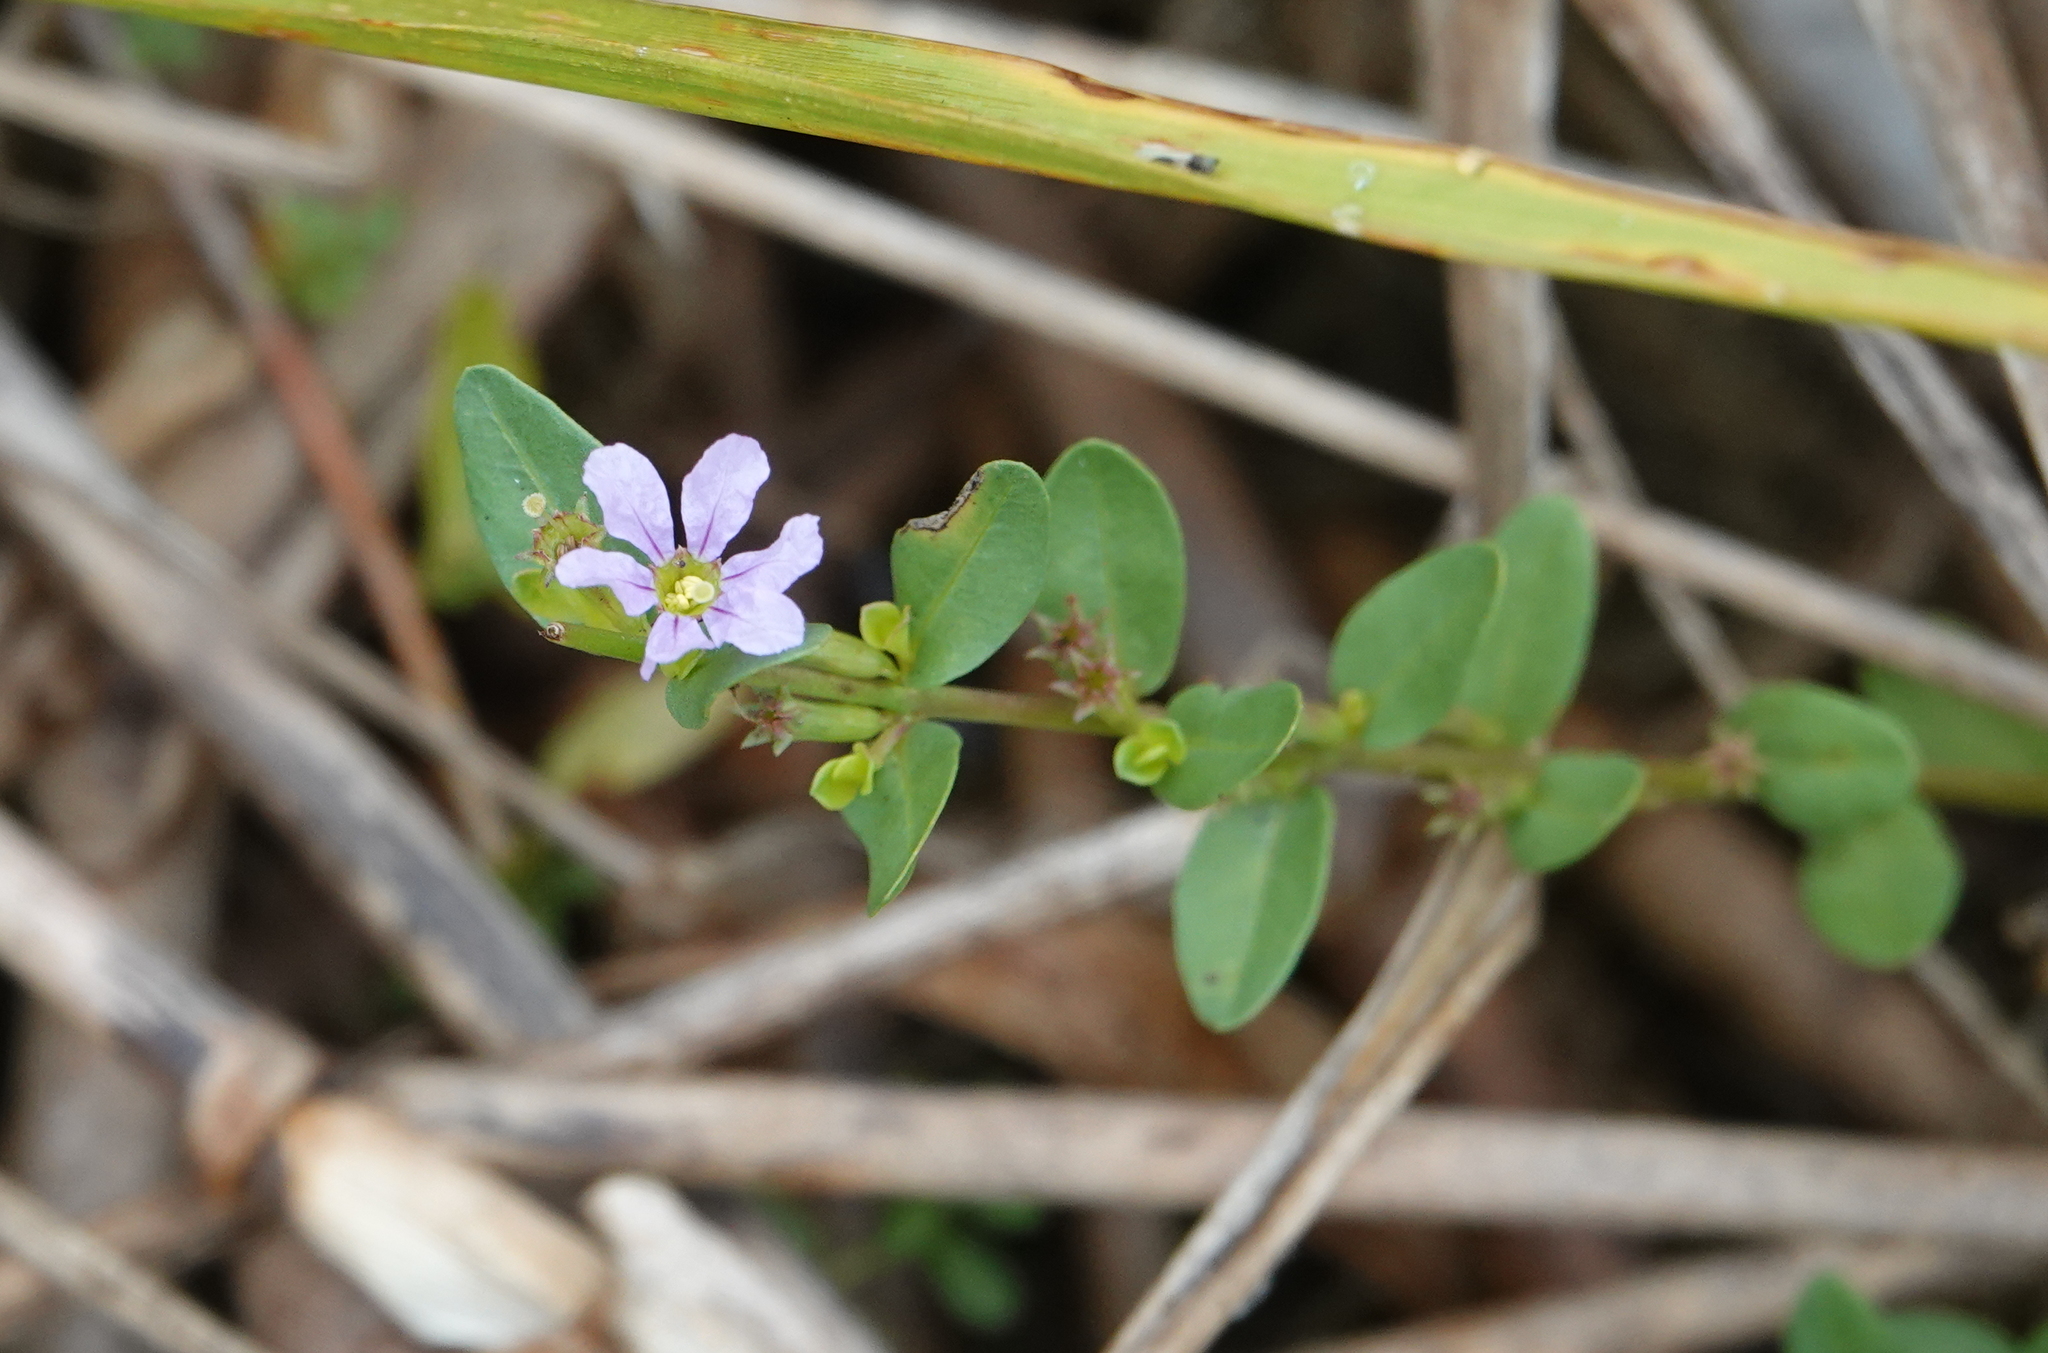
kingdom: Plantae
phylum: Tracheophyta
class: Magnoliopsida
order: Myrtales
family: Lythraceae
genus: Lythrum
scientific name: Lythrum flagellare
